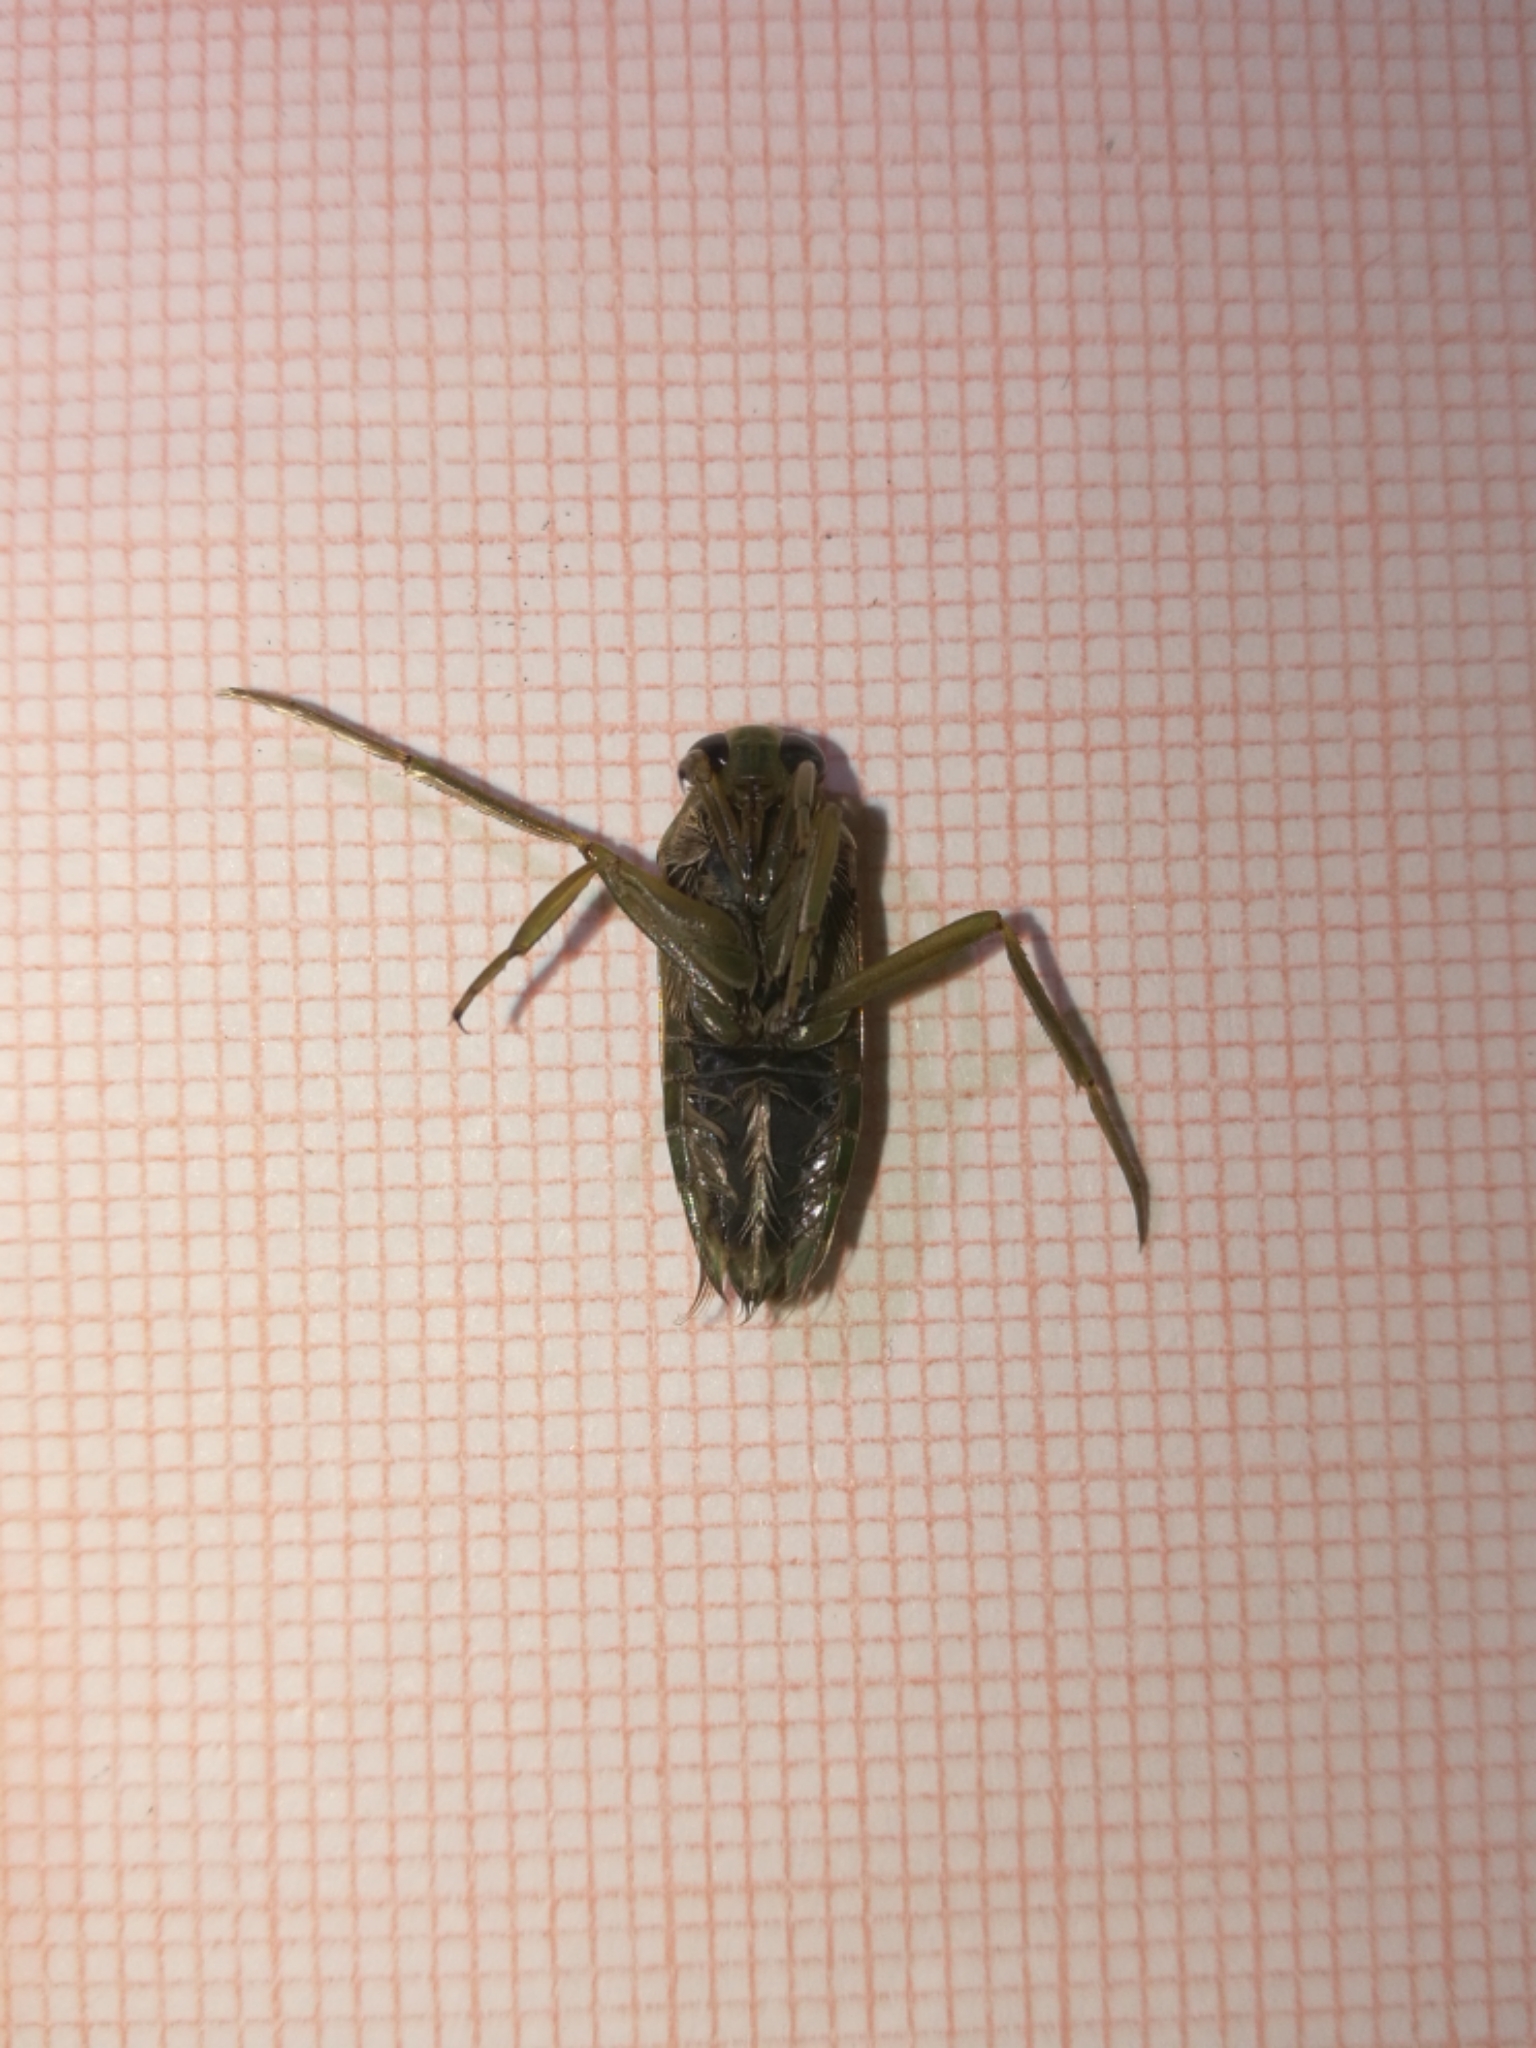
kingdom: Animalia
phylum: Arthropoda
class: Insecta
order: Hemiptera
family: Notonectidae
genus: Notonecta
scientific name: Notonecta maculata
